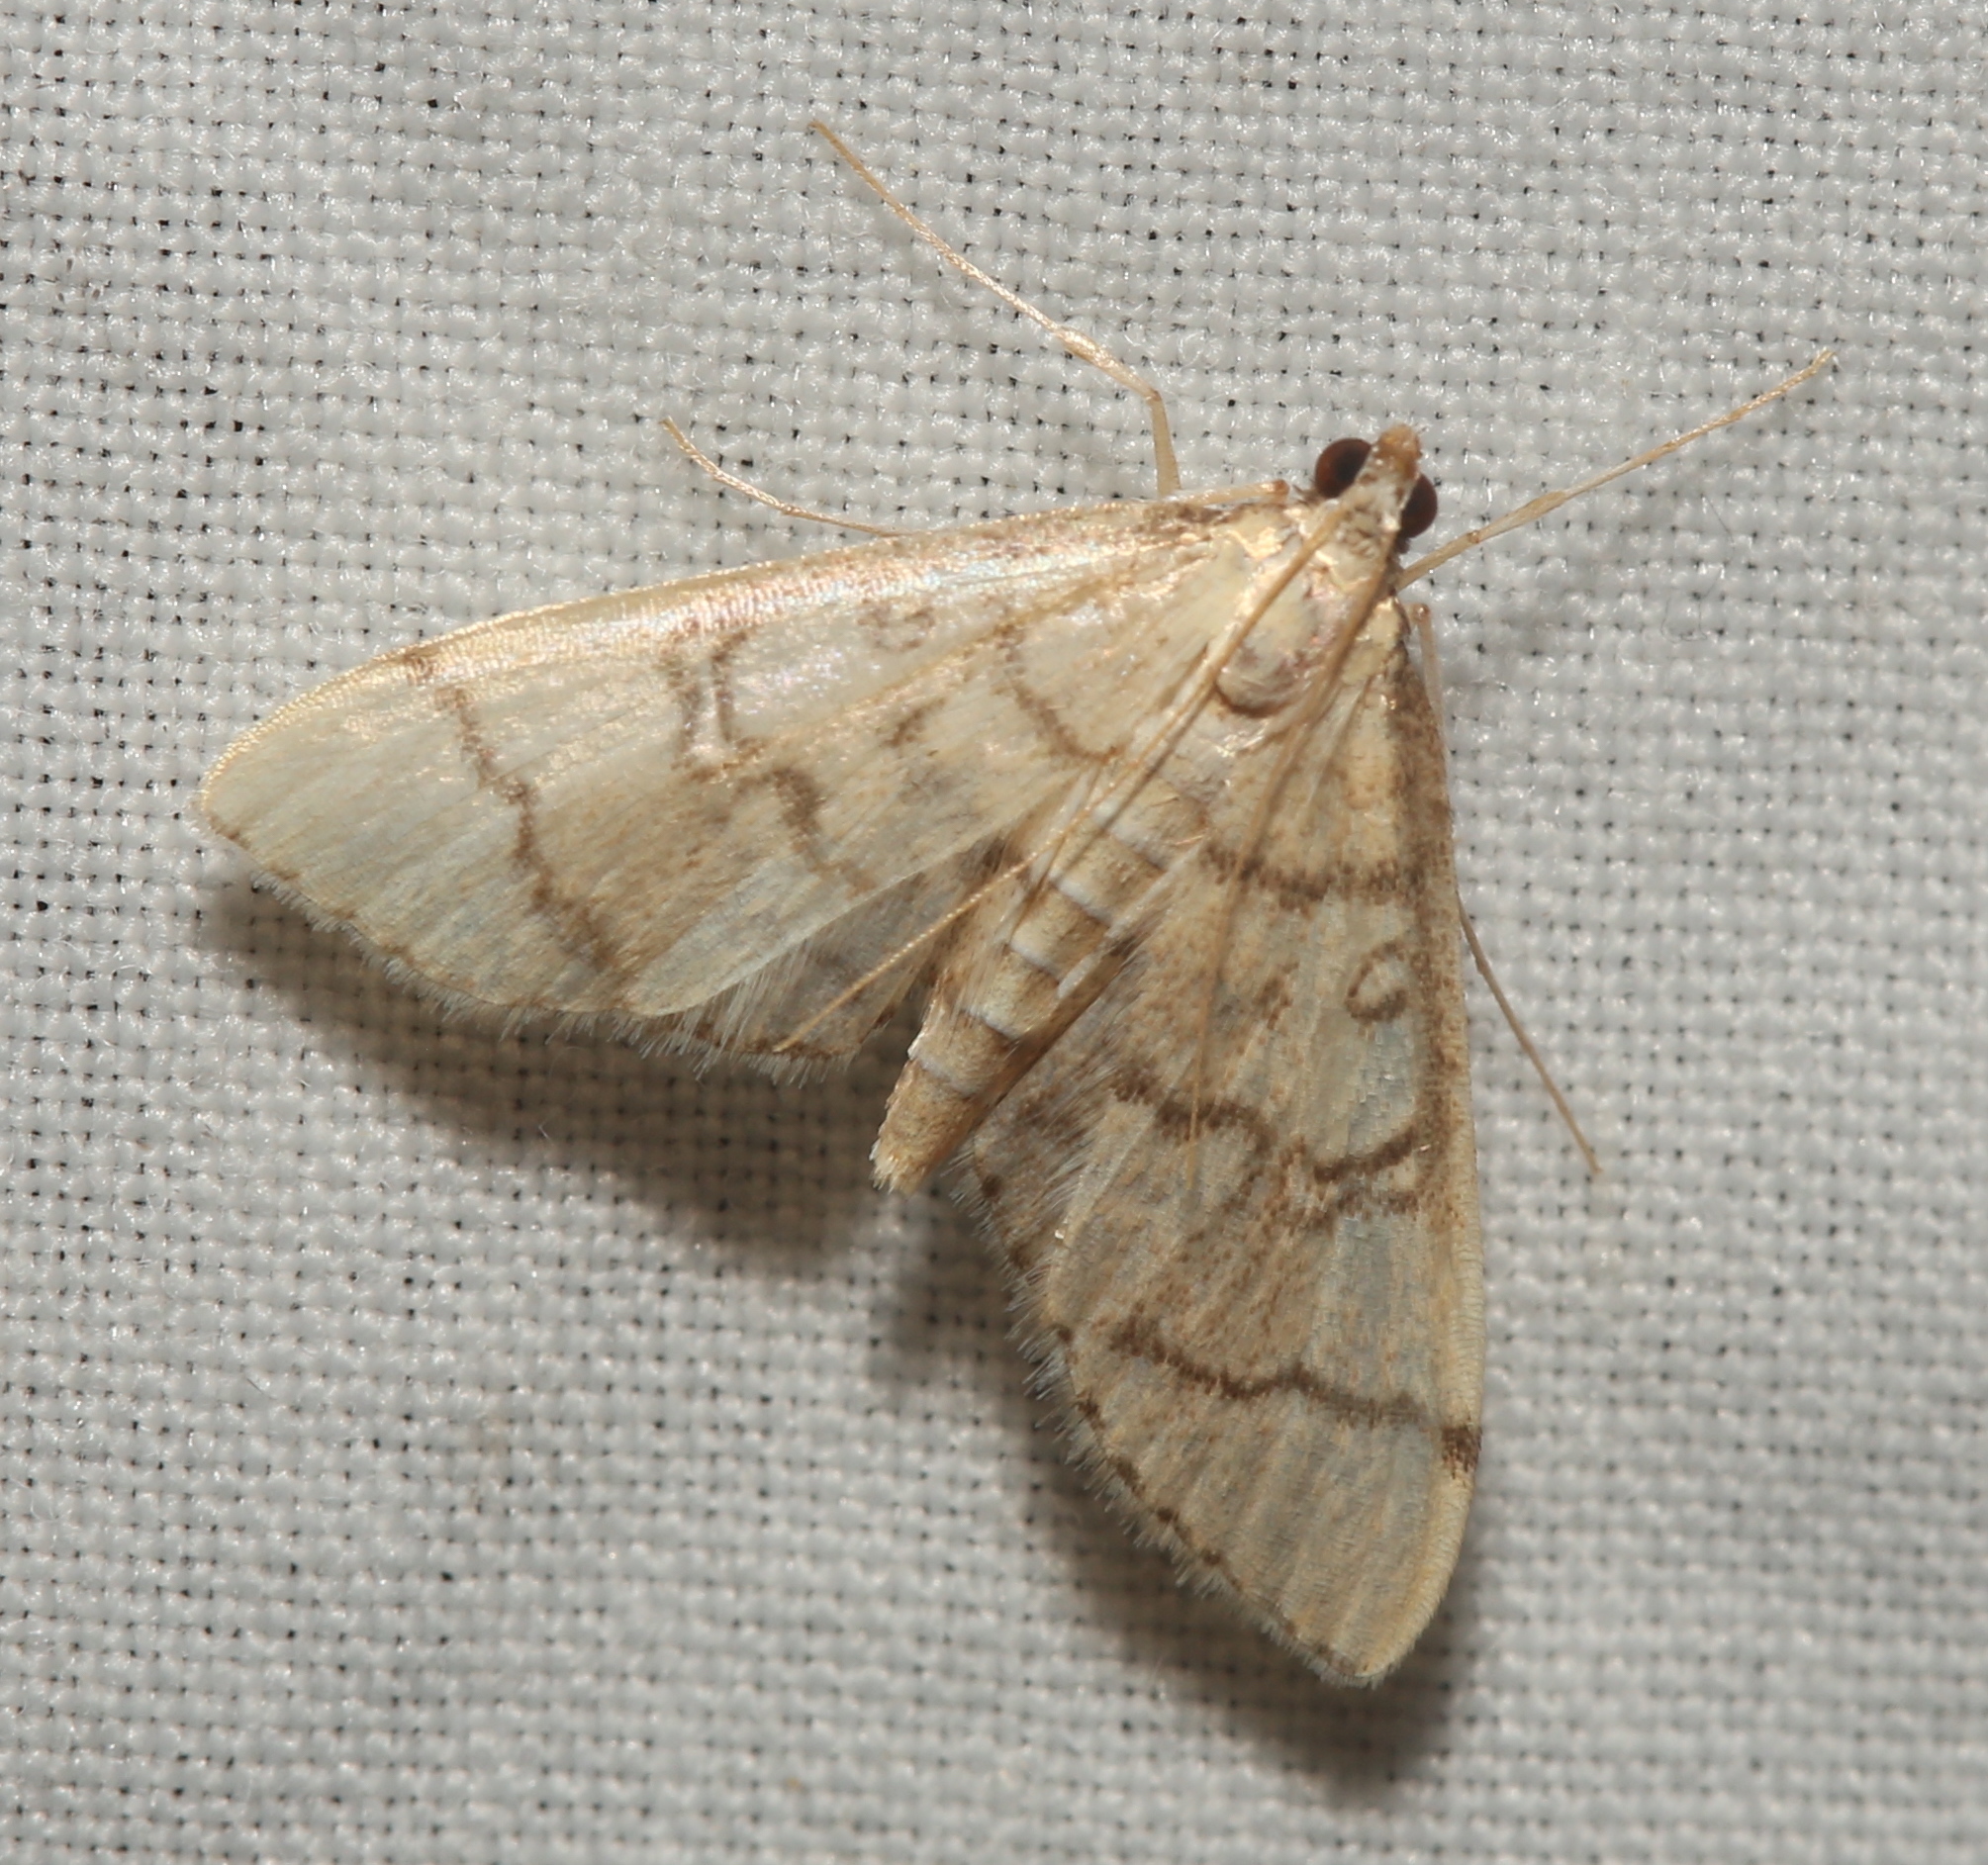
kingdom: Animalia
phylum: Arthropoda
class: Insecta
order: Lepidoptera
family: Crambidae
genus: Lamprosema
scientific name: Lamprosema Blepharomastix ranalis
